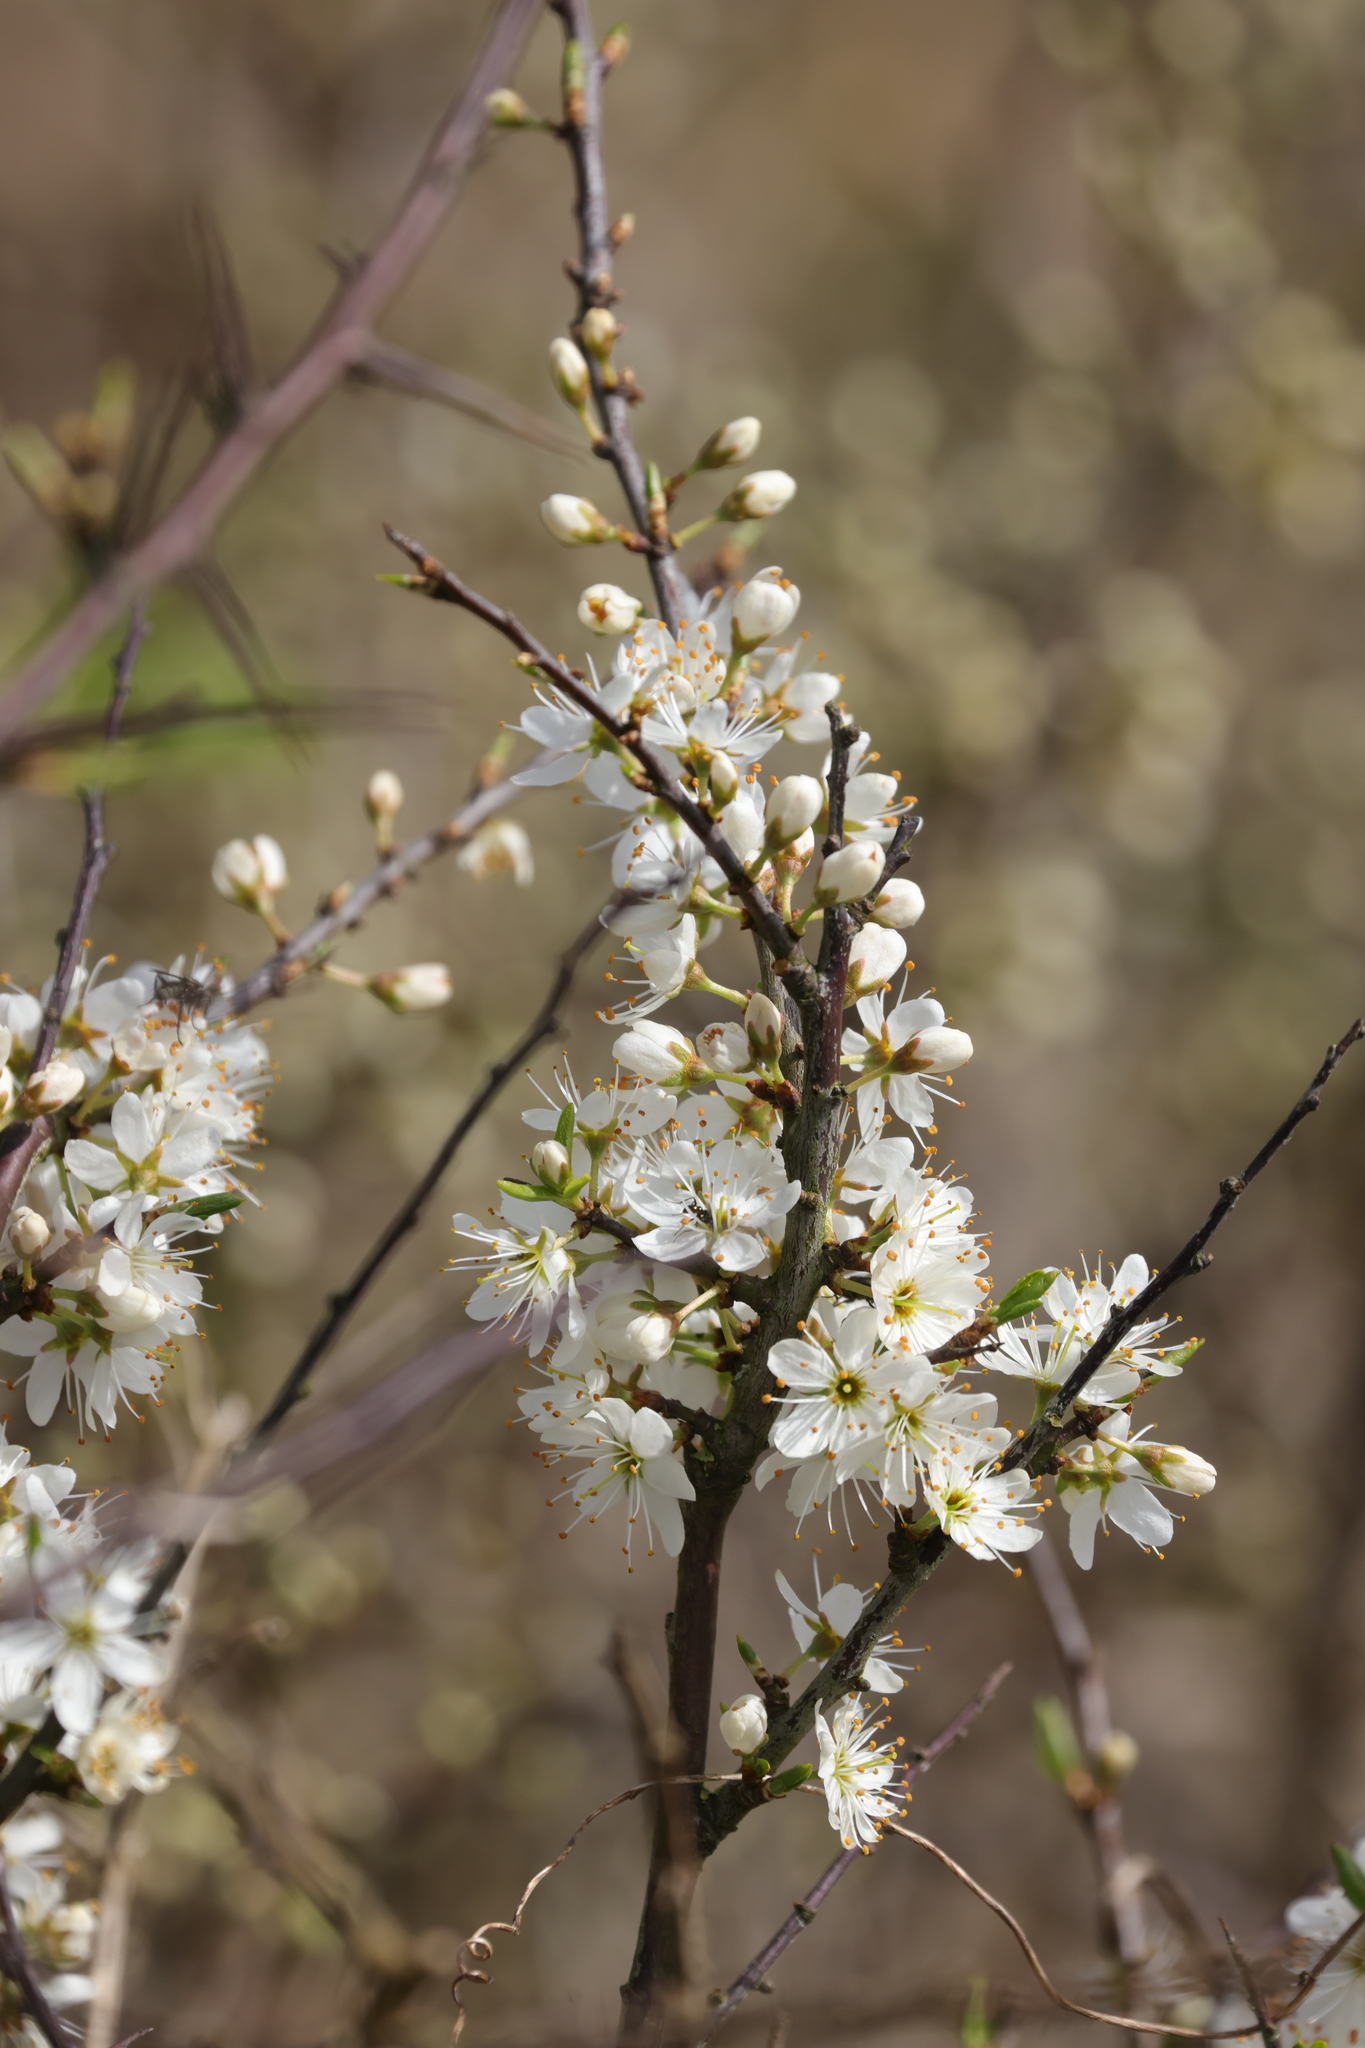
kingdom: Plantae
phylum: Tracheophyta
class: Magnoliopsida
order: Rosales
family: Rosaceae
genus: Prunus
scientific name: Prunus spinosa
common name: Blackthorn
